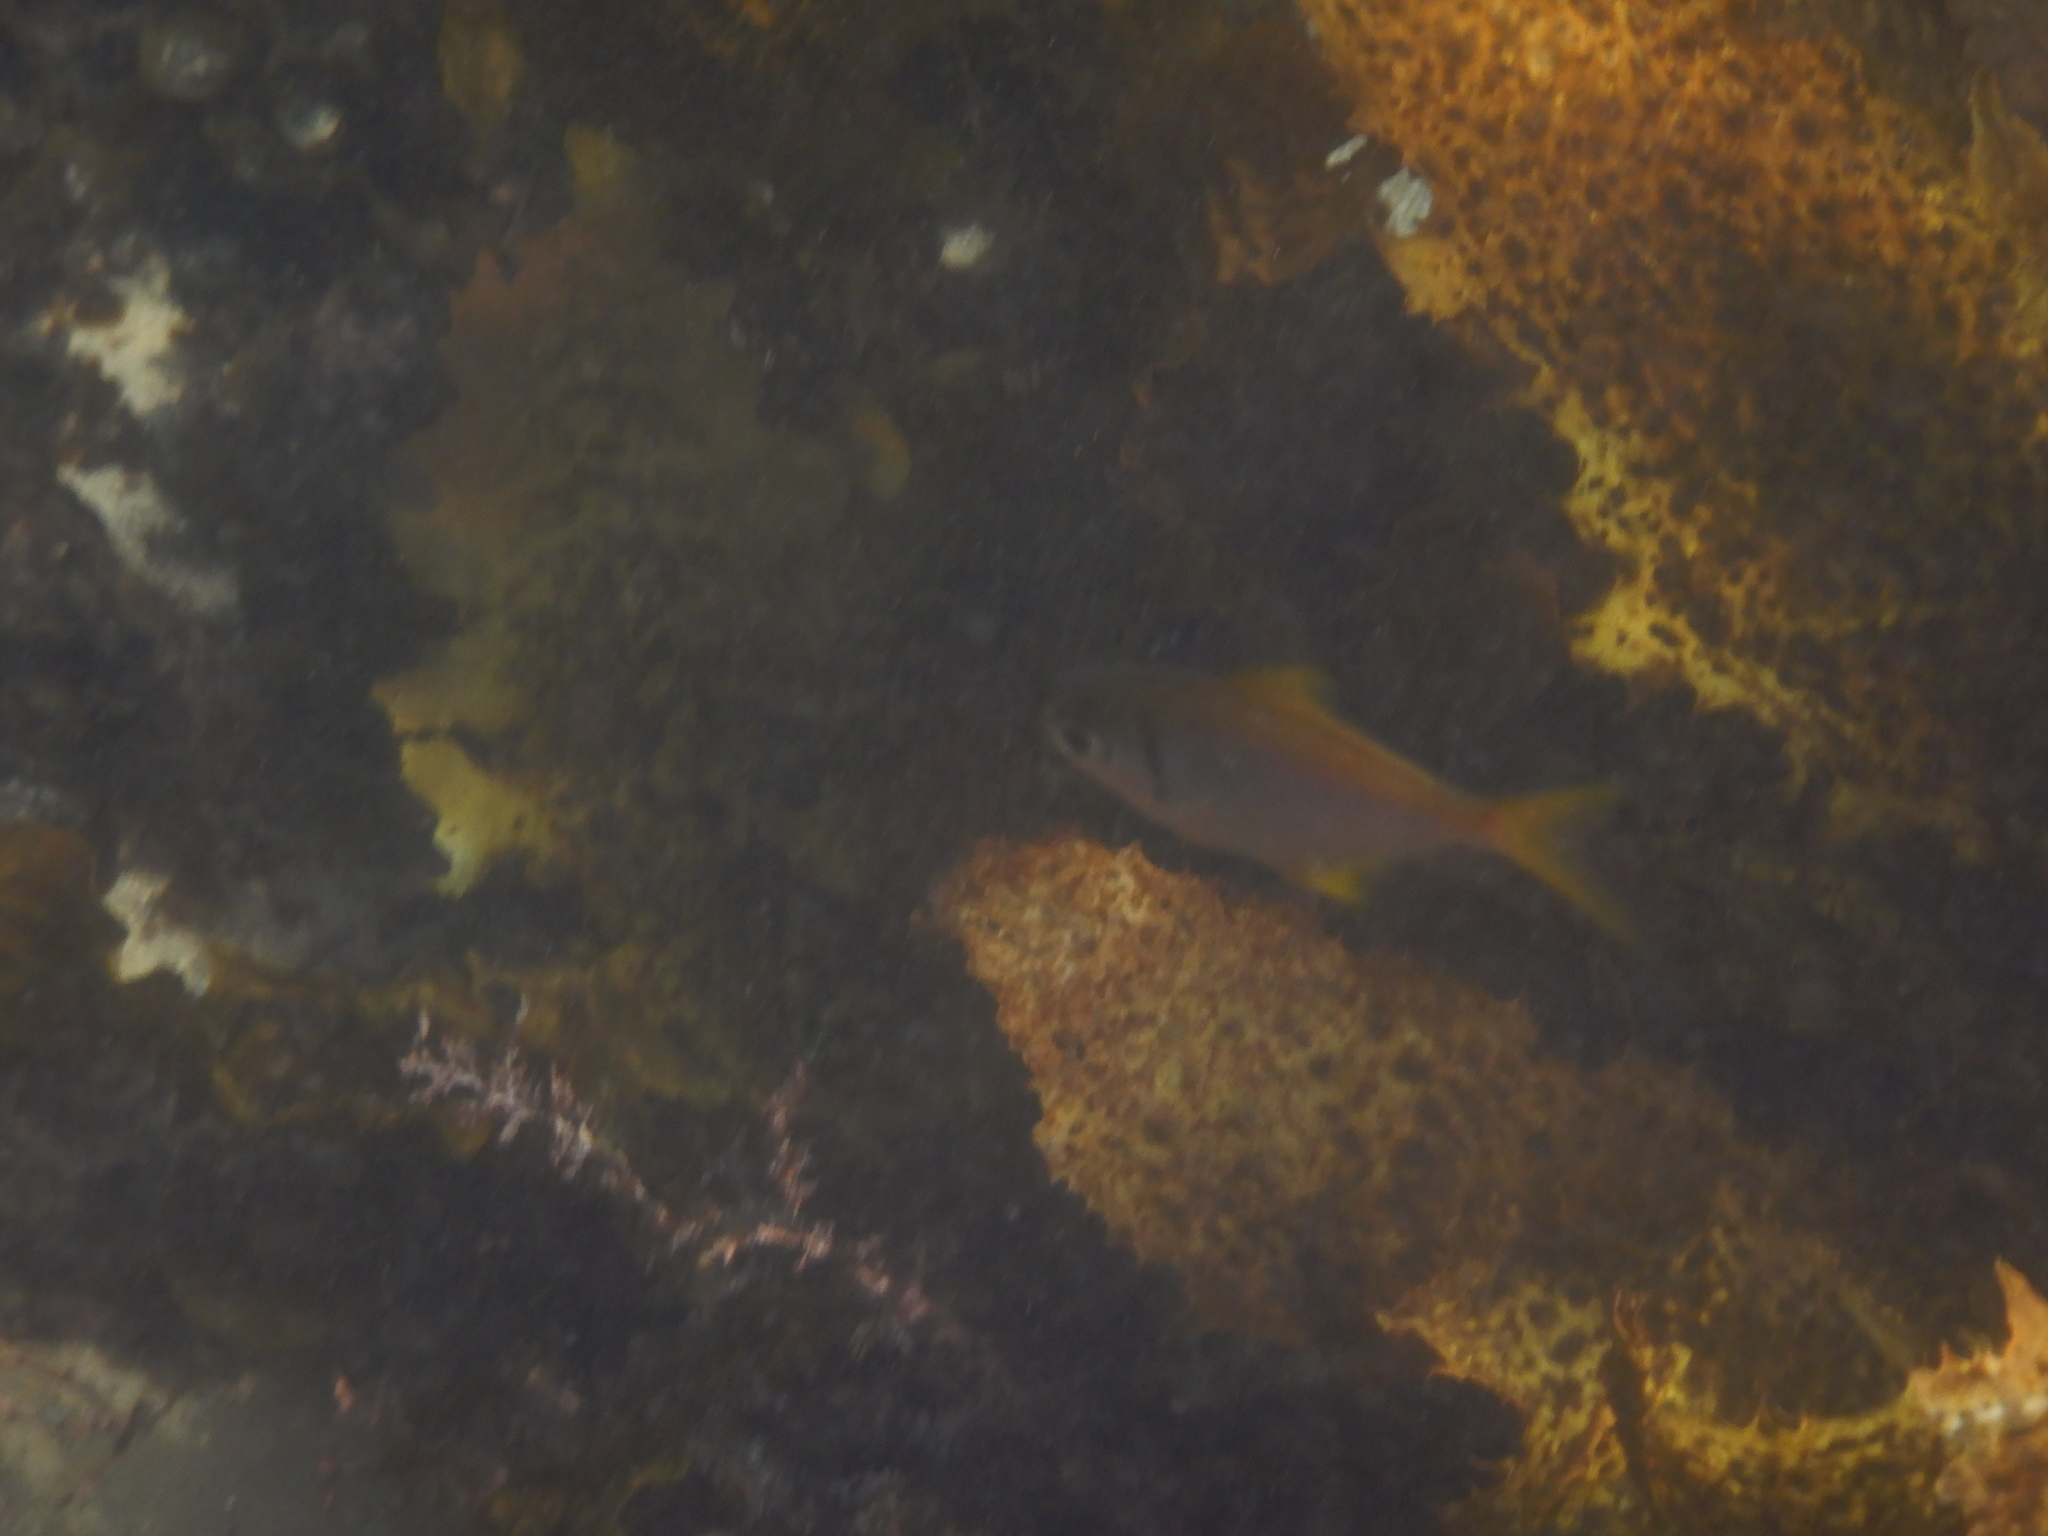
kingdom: Animalia
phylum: Chordata
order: Perciformes
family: Monodactylidae
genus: Schuettea
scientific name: Schuettea scalaripinnis
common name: Eastern pomfred
